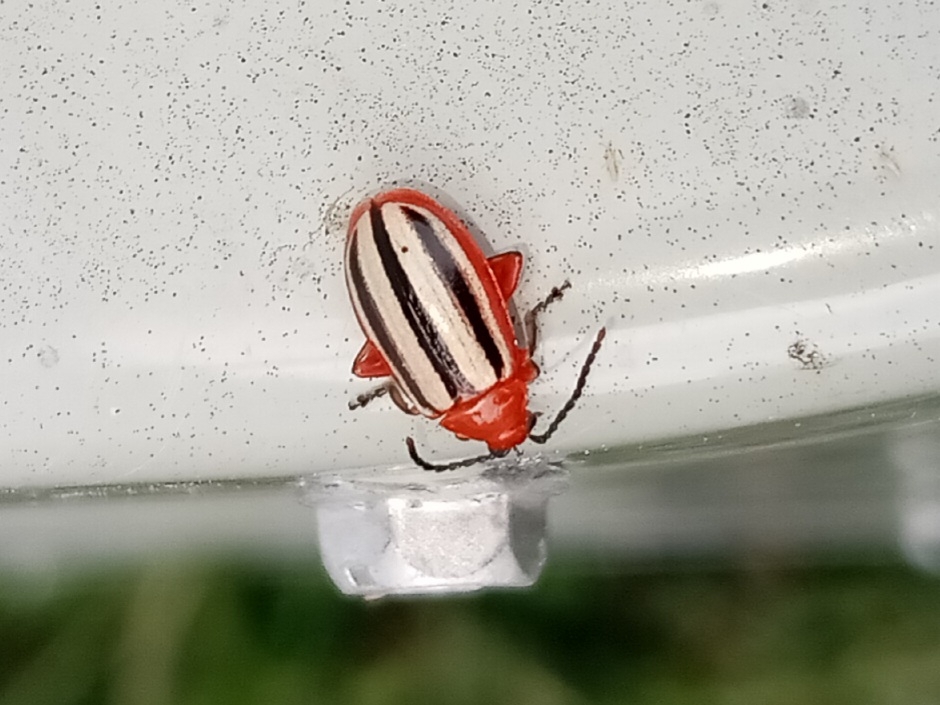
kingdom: Animalia
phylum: Arthropoda
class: Insecta
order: Coleoptera
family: Chrysomelidae
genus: Disonycha
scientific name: Disonycha discoidea
